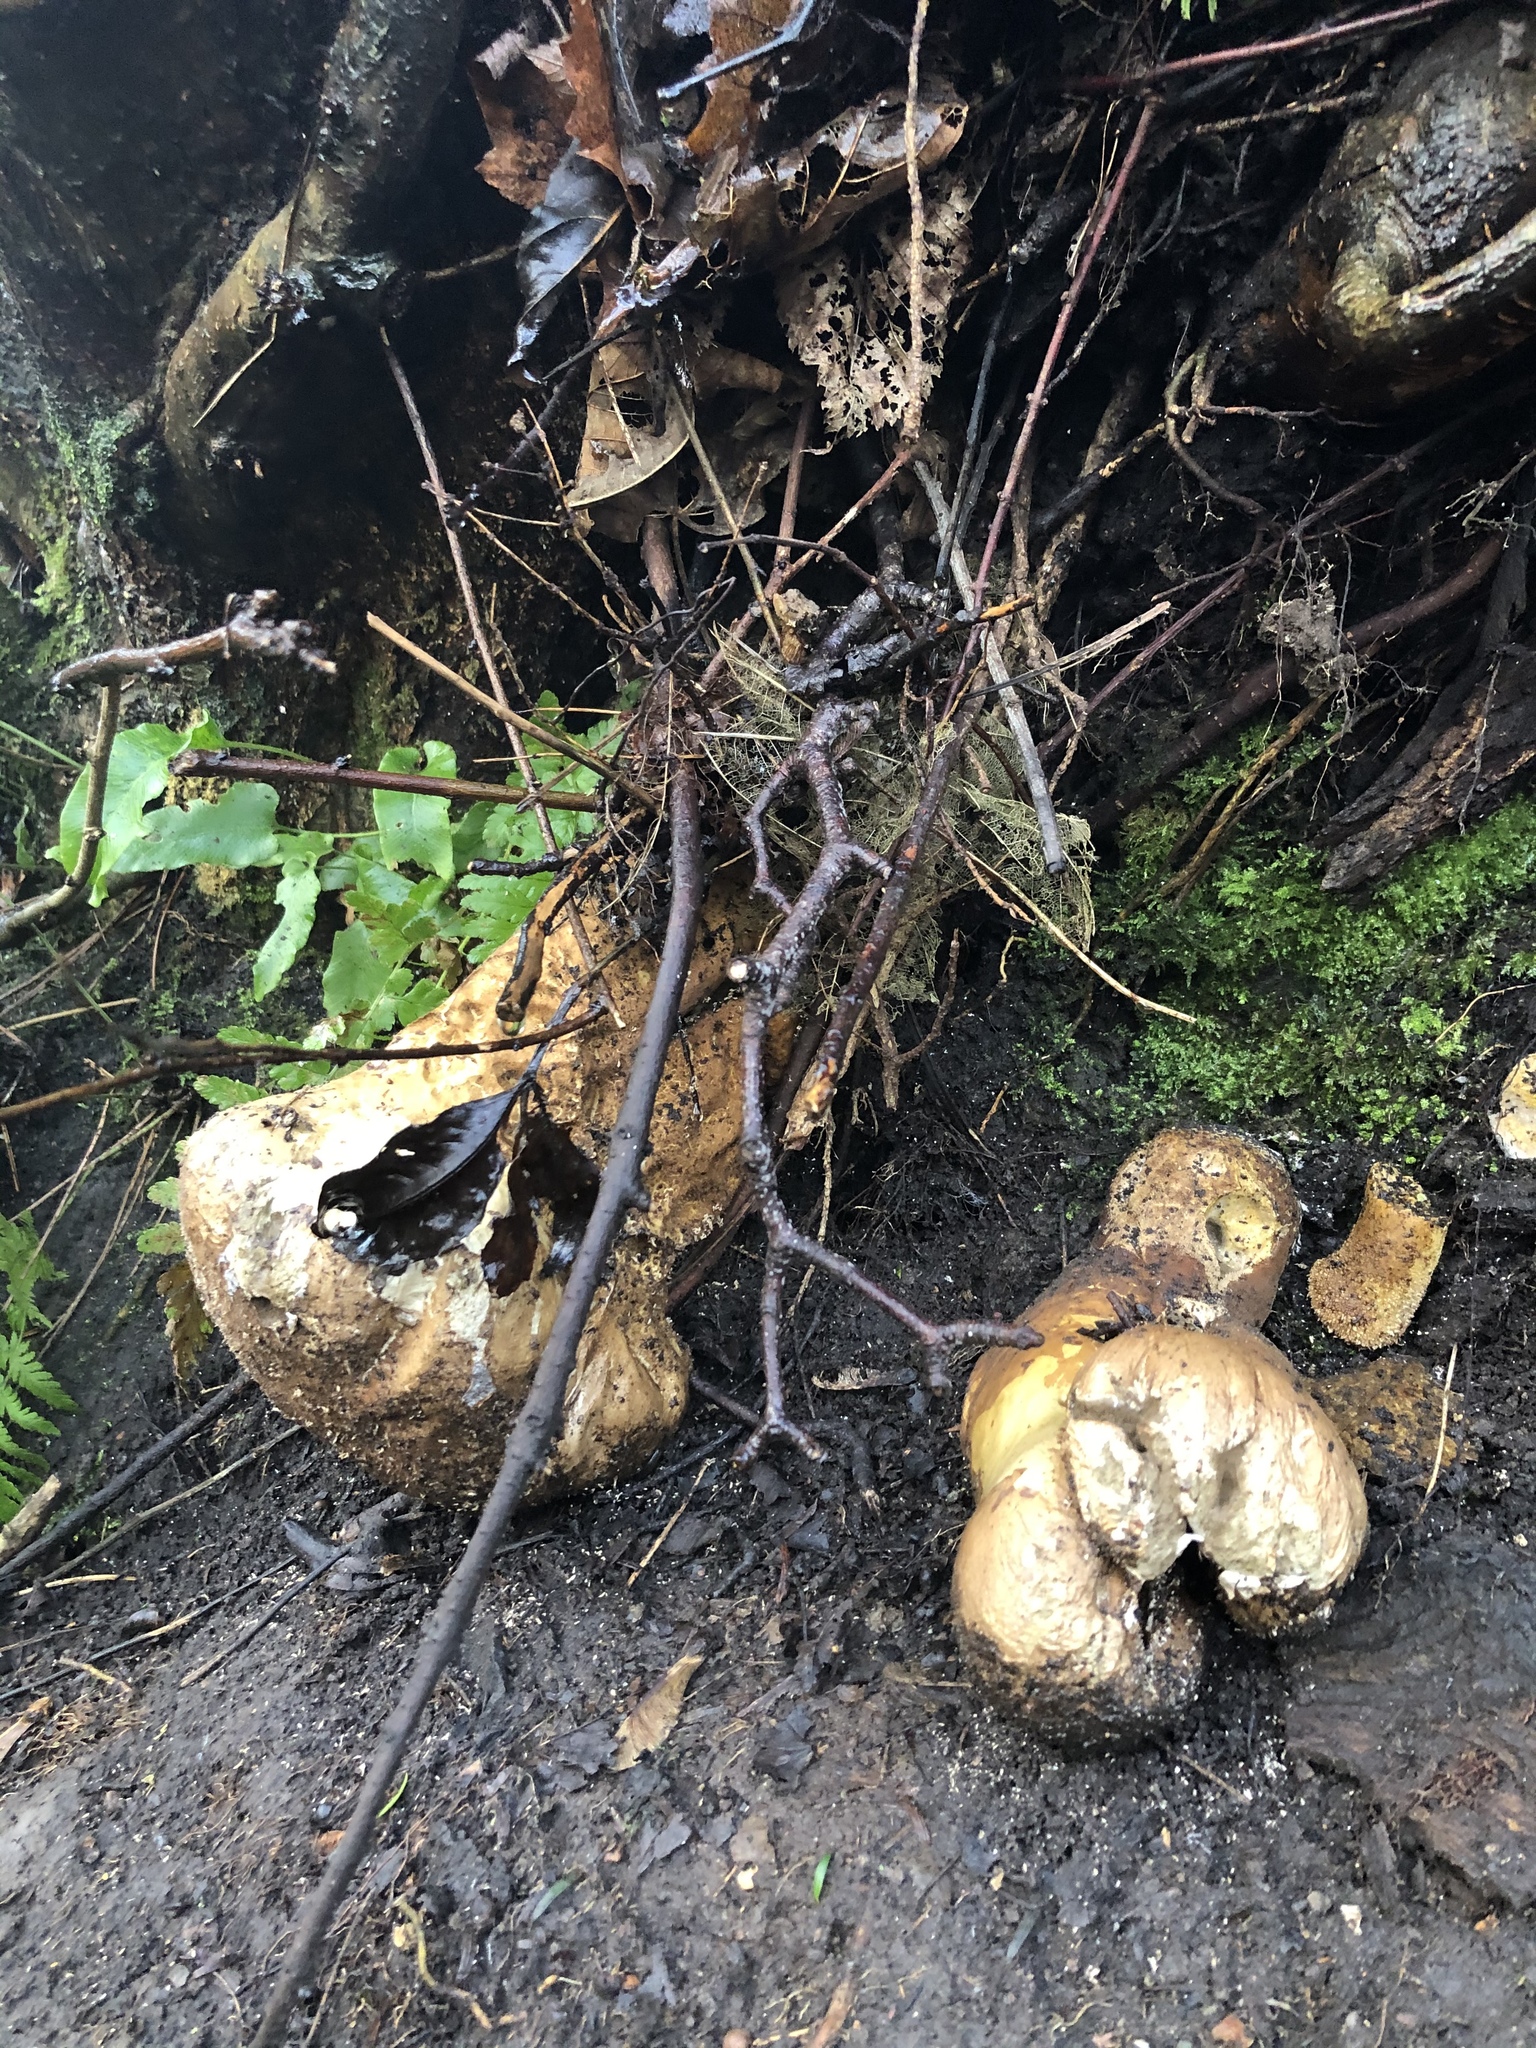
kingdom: Fungi
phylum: Basidiomycota
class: Agaricomycetes
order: Agaricales
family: Lycoperdaceae
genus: Lycoperdon
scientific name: Lycoperdon excipuliforme
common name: Pestle puffball
